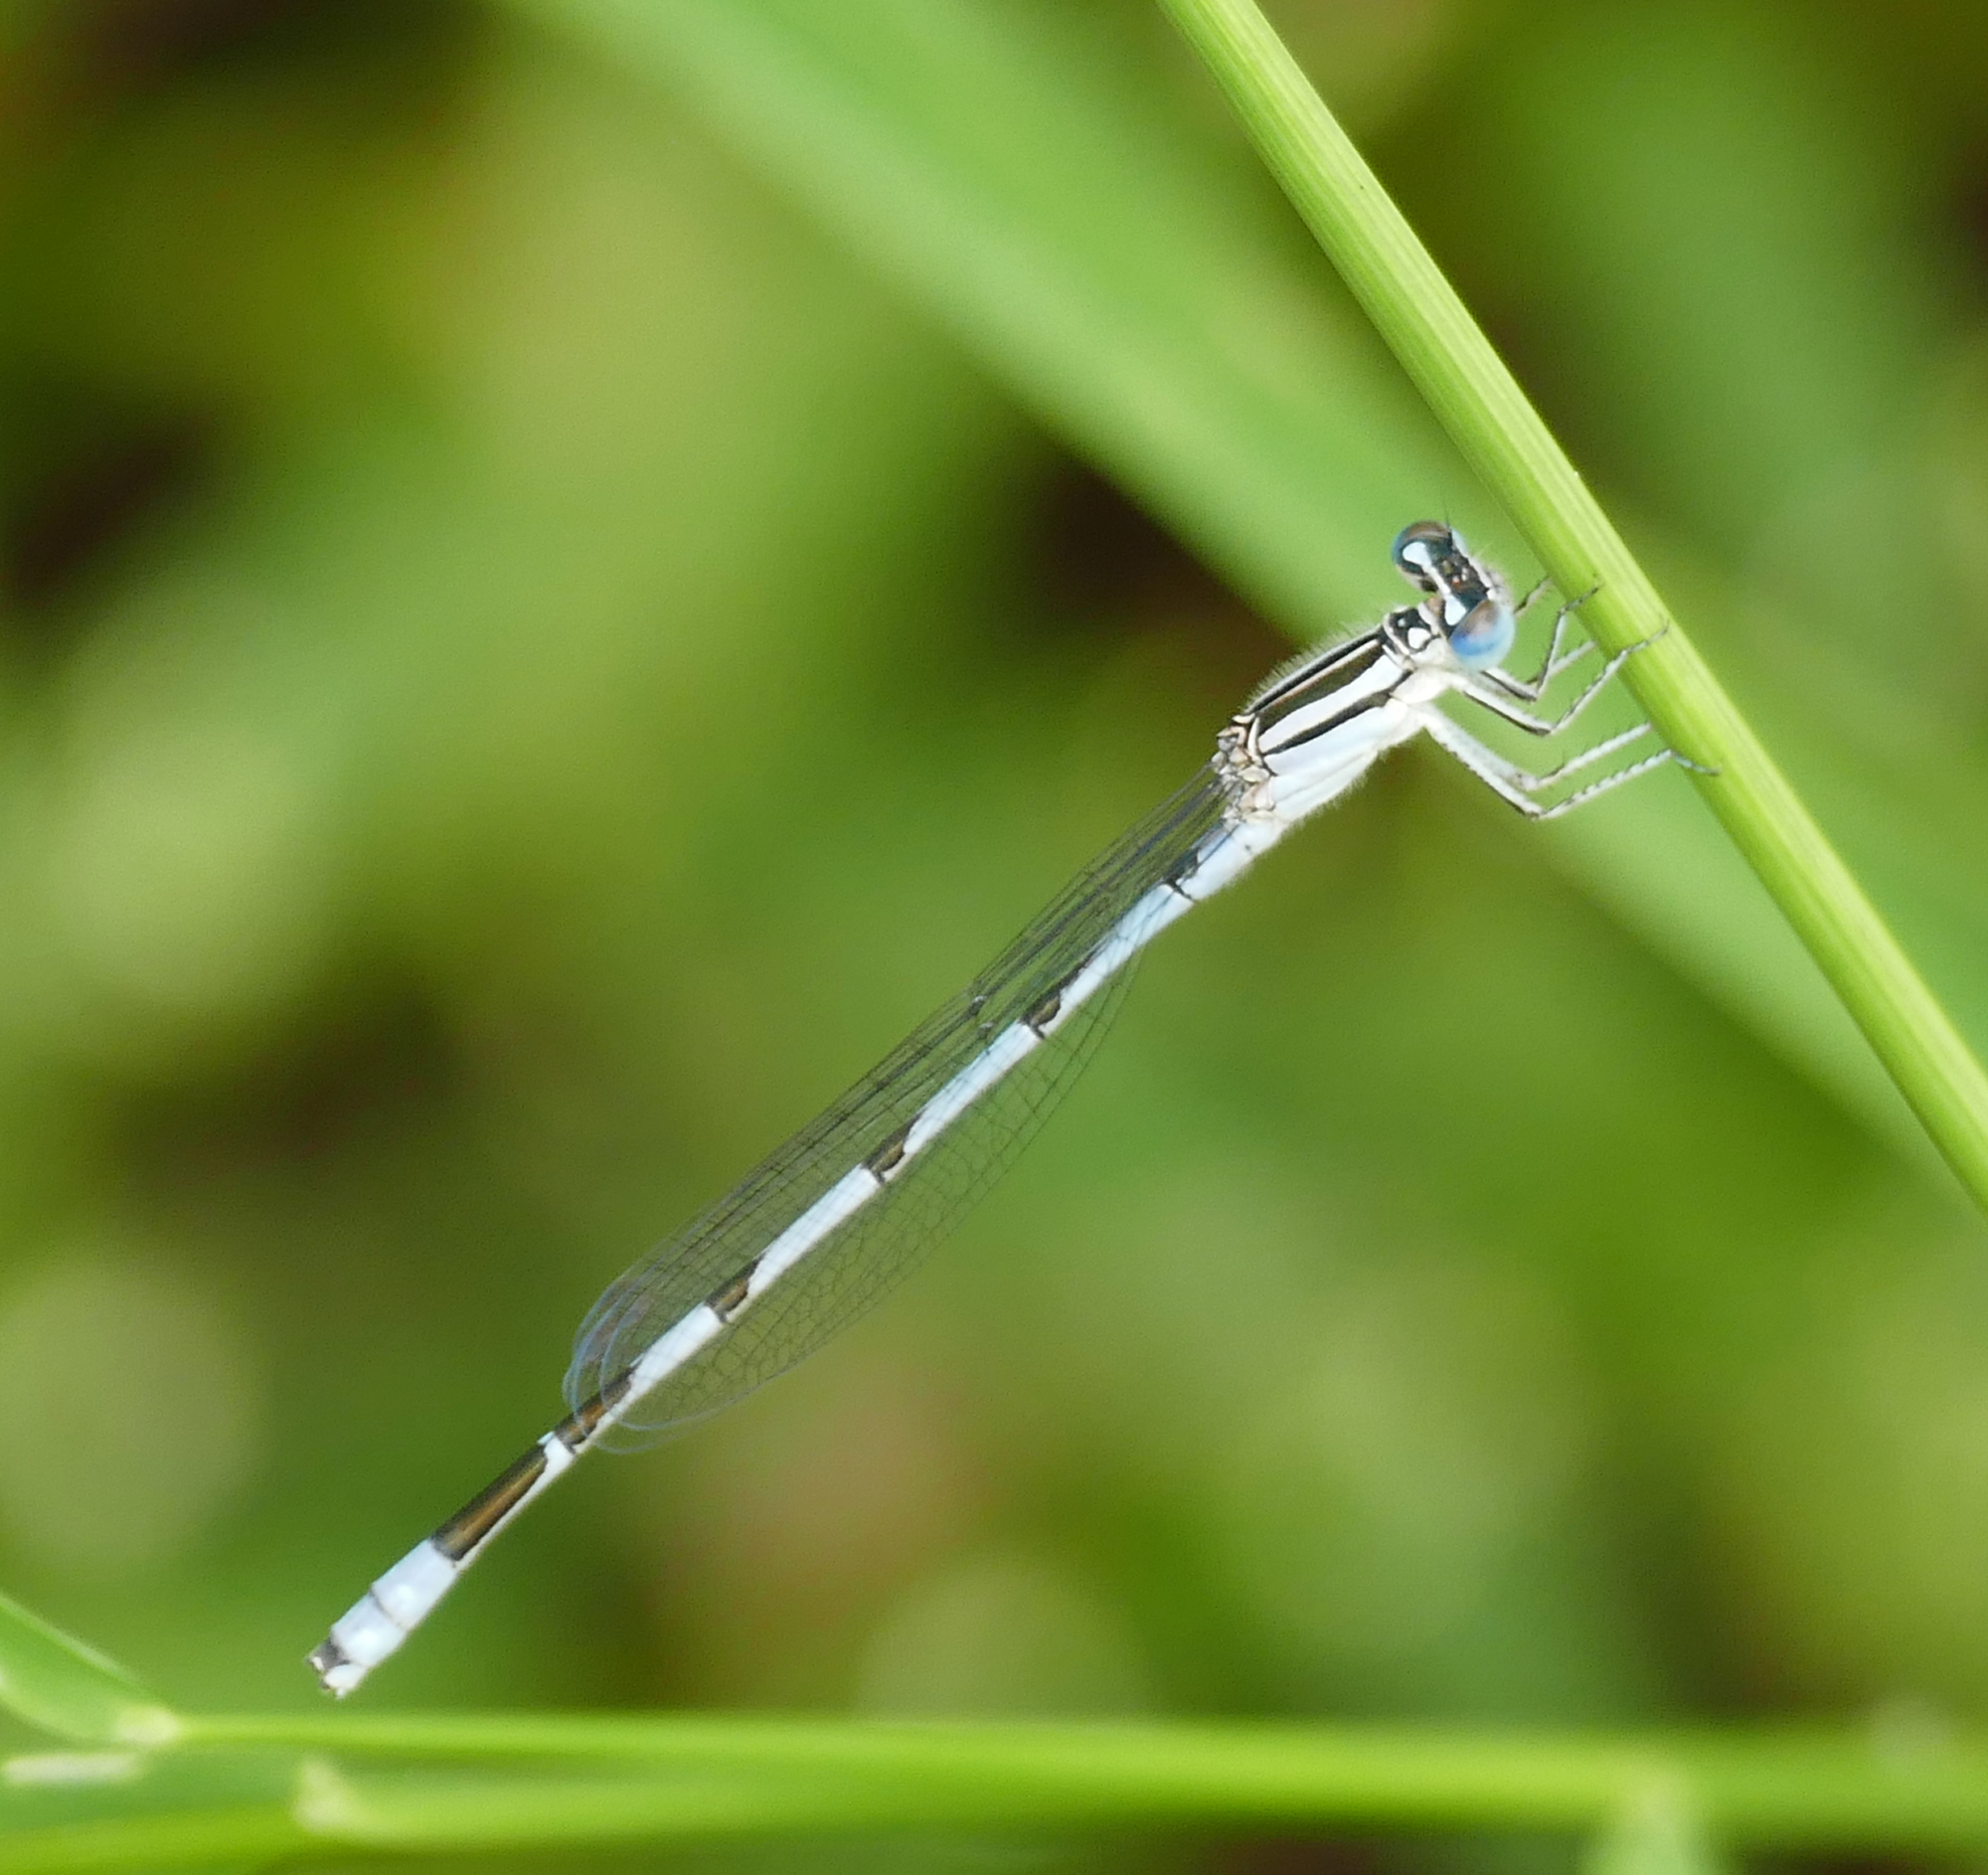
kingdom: Animalia
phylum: Arthropoda
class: Insecta
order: Odonata
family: Coenagrionidae
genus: Enallagma
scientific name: Enallagma durum
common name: Big bluet
